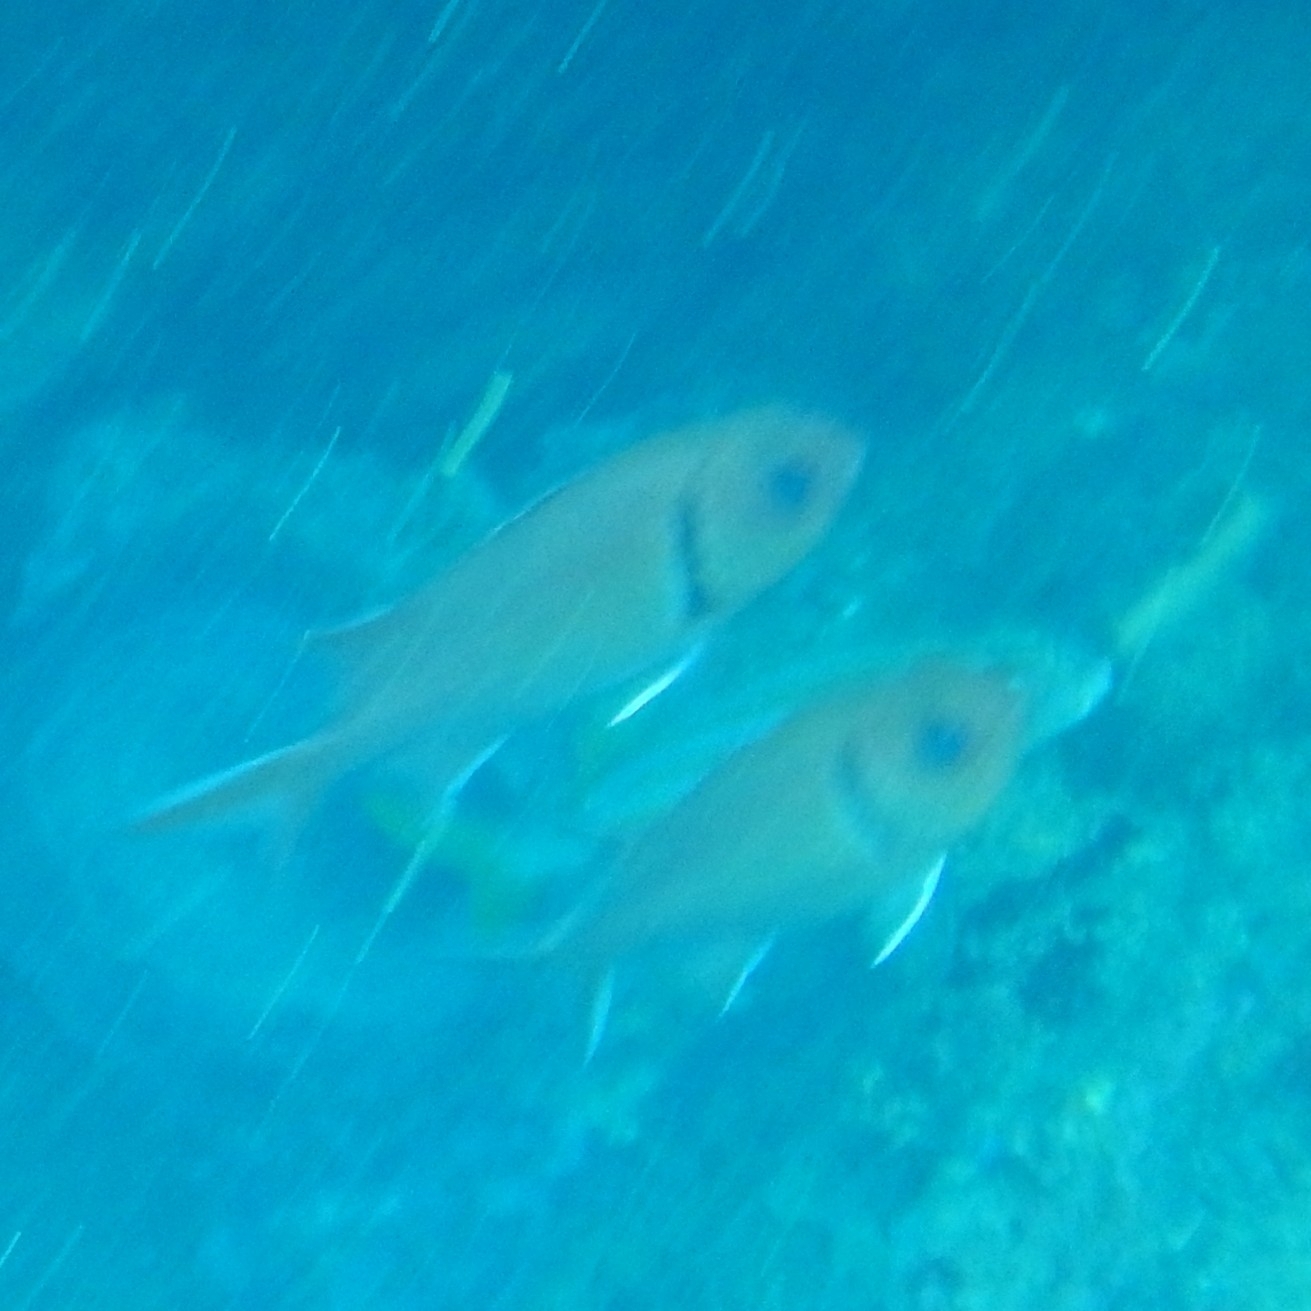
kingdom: Animalia
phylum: Chordata
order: Beryciformes
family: Holocentridae
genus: Myripristis
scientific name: Myripristis jacobus
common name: Blackbar soldierfish
